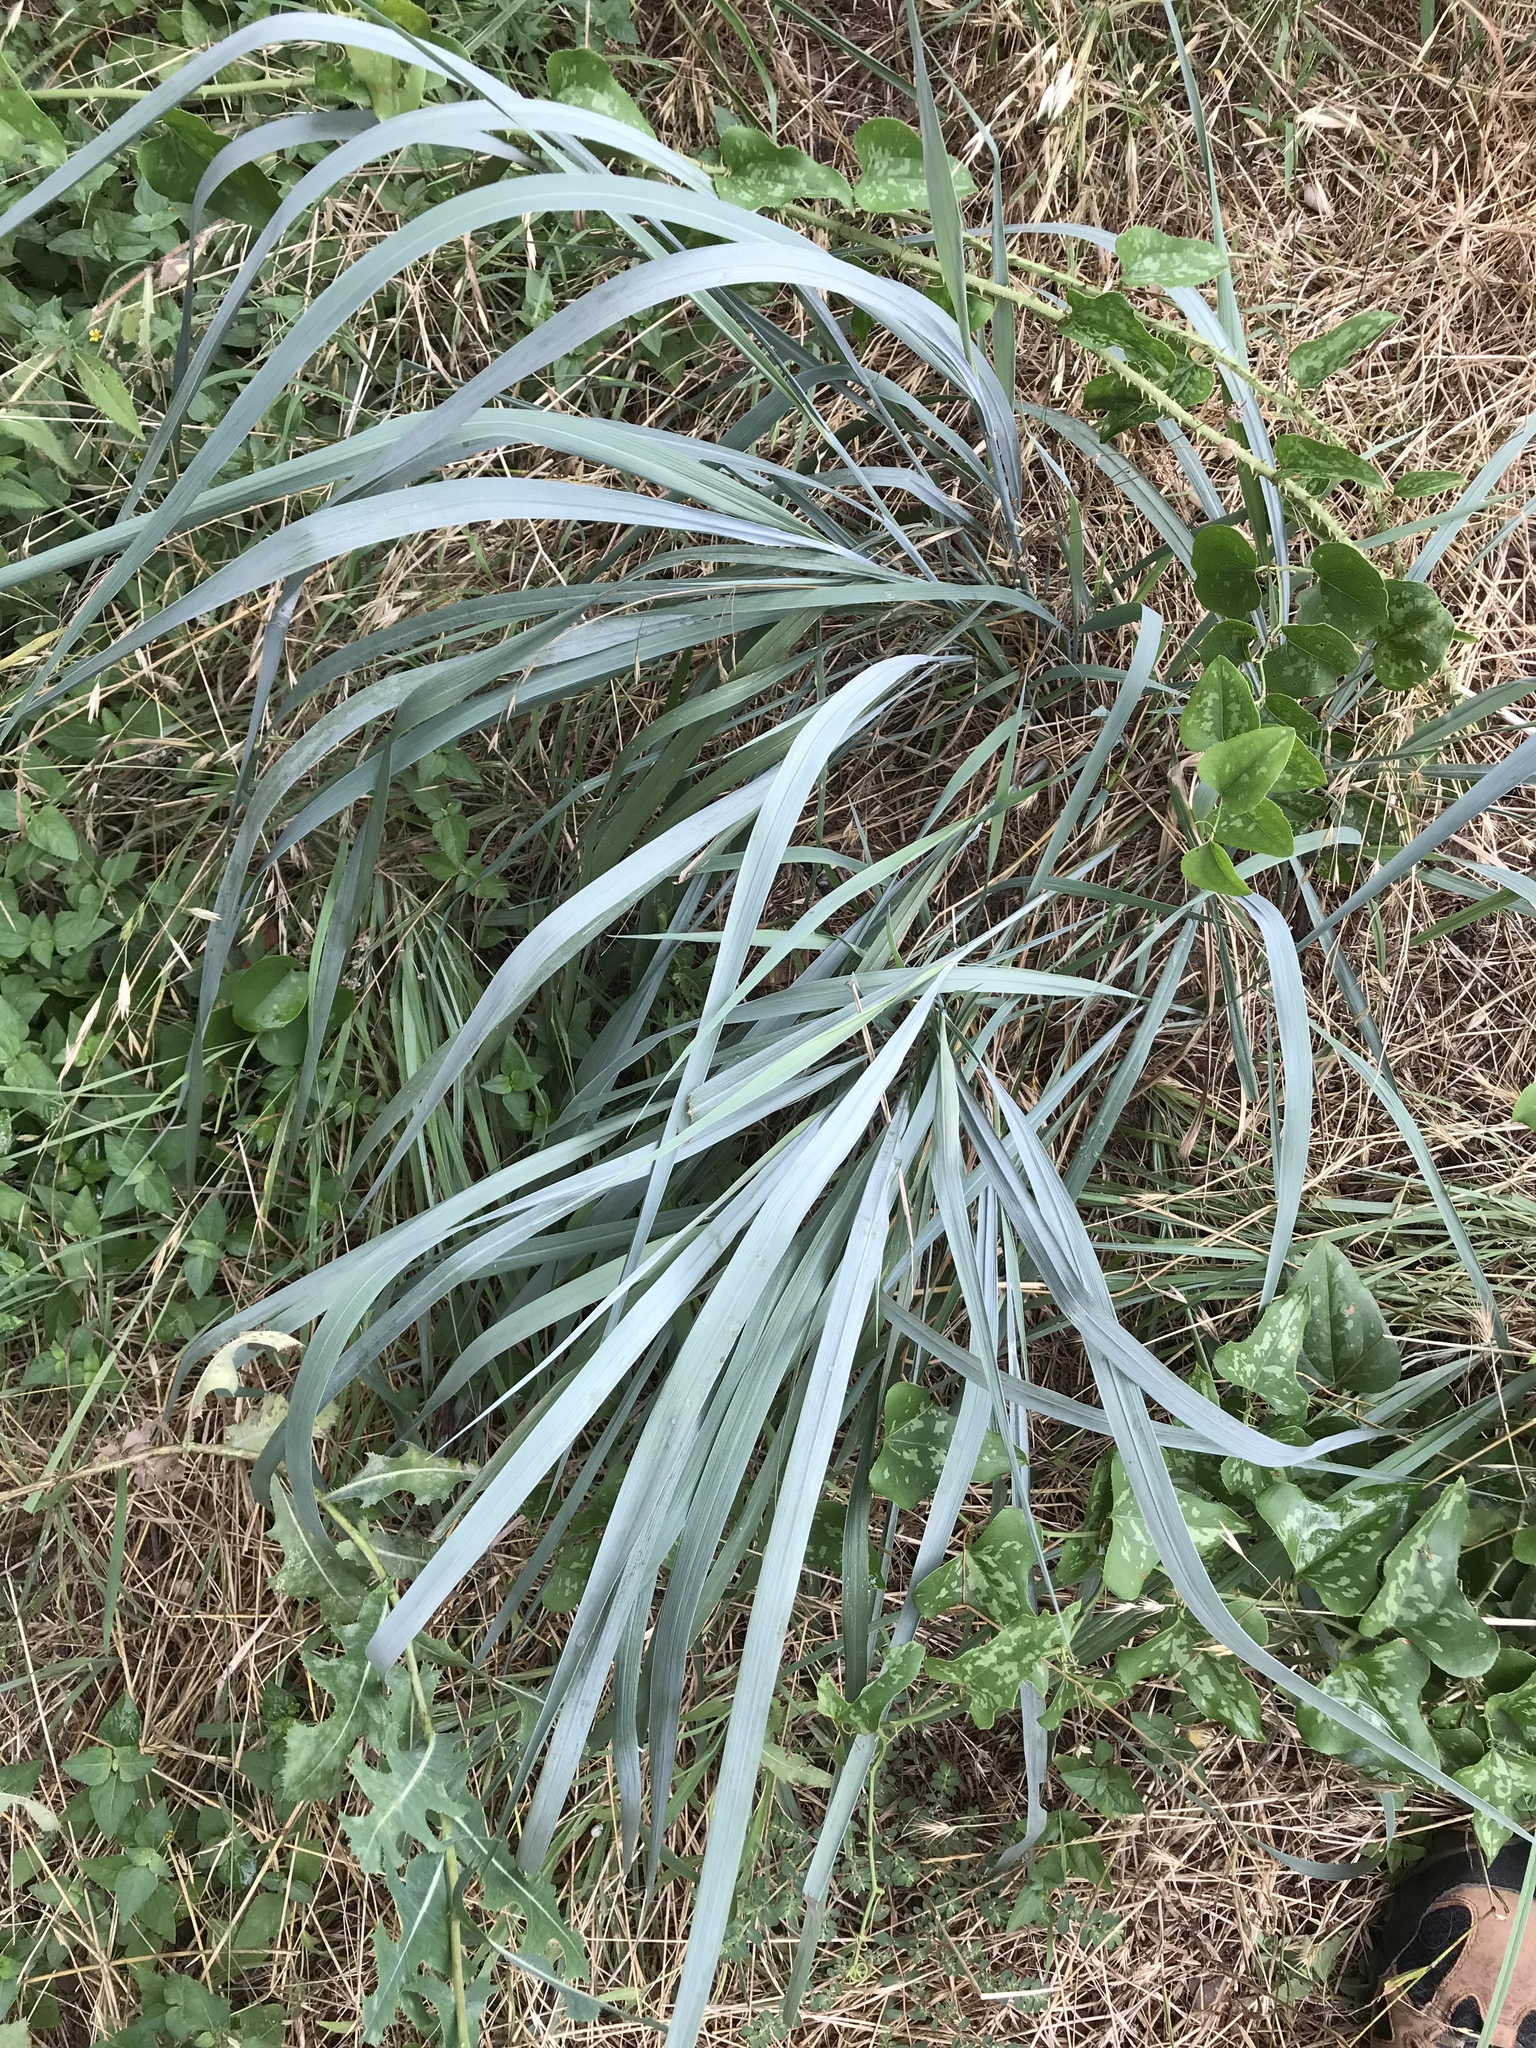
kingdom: Plantae
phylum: Tracheophyta
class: Liliopsida
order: Poales
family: Poaceae
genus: Sorghastrum
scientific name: Sorghastrum nutans
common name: Indian grass
